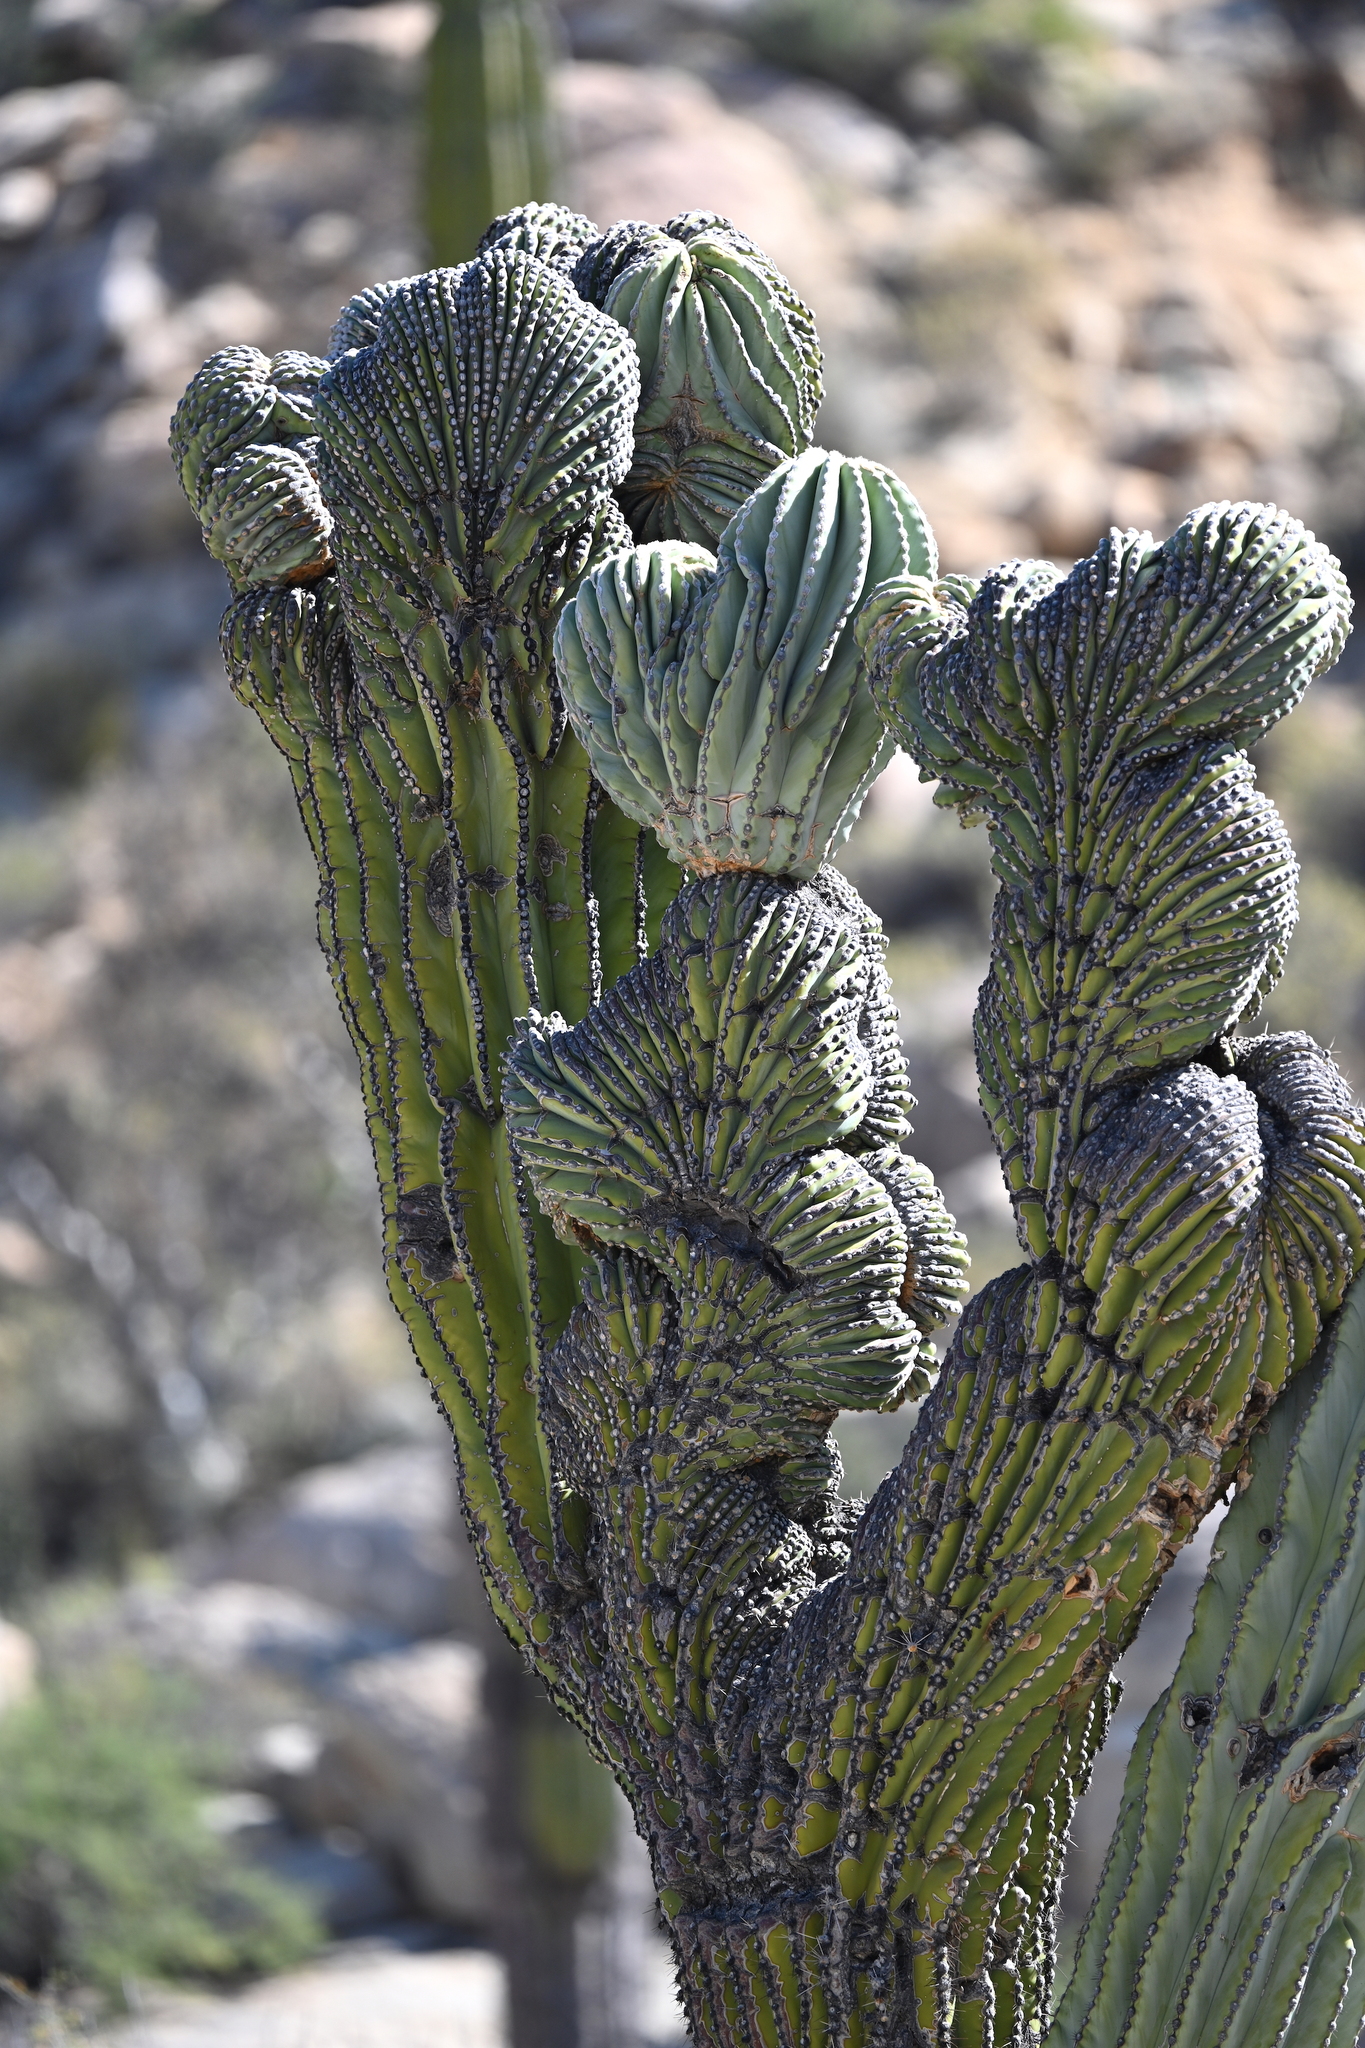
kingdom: Plantae
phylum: Tracheophyta
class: Magnoliopsida
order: Caryophyllales
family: Cactaceae
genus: Pachycereus
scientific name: Pachycereus pringlei
